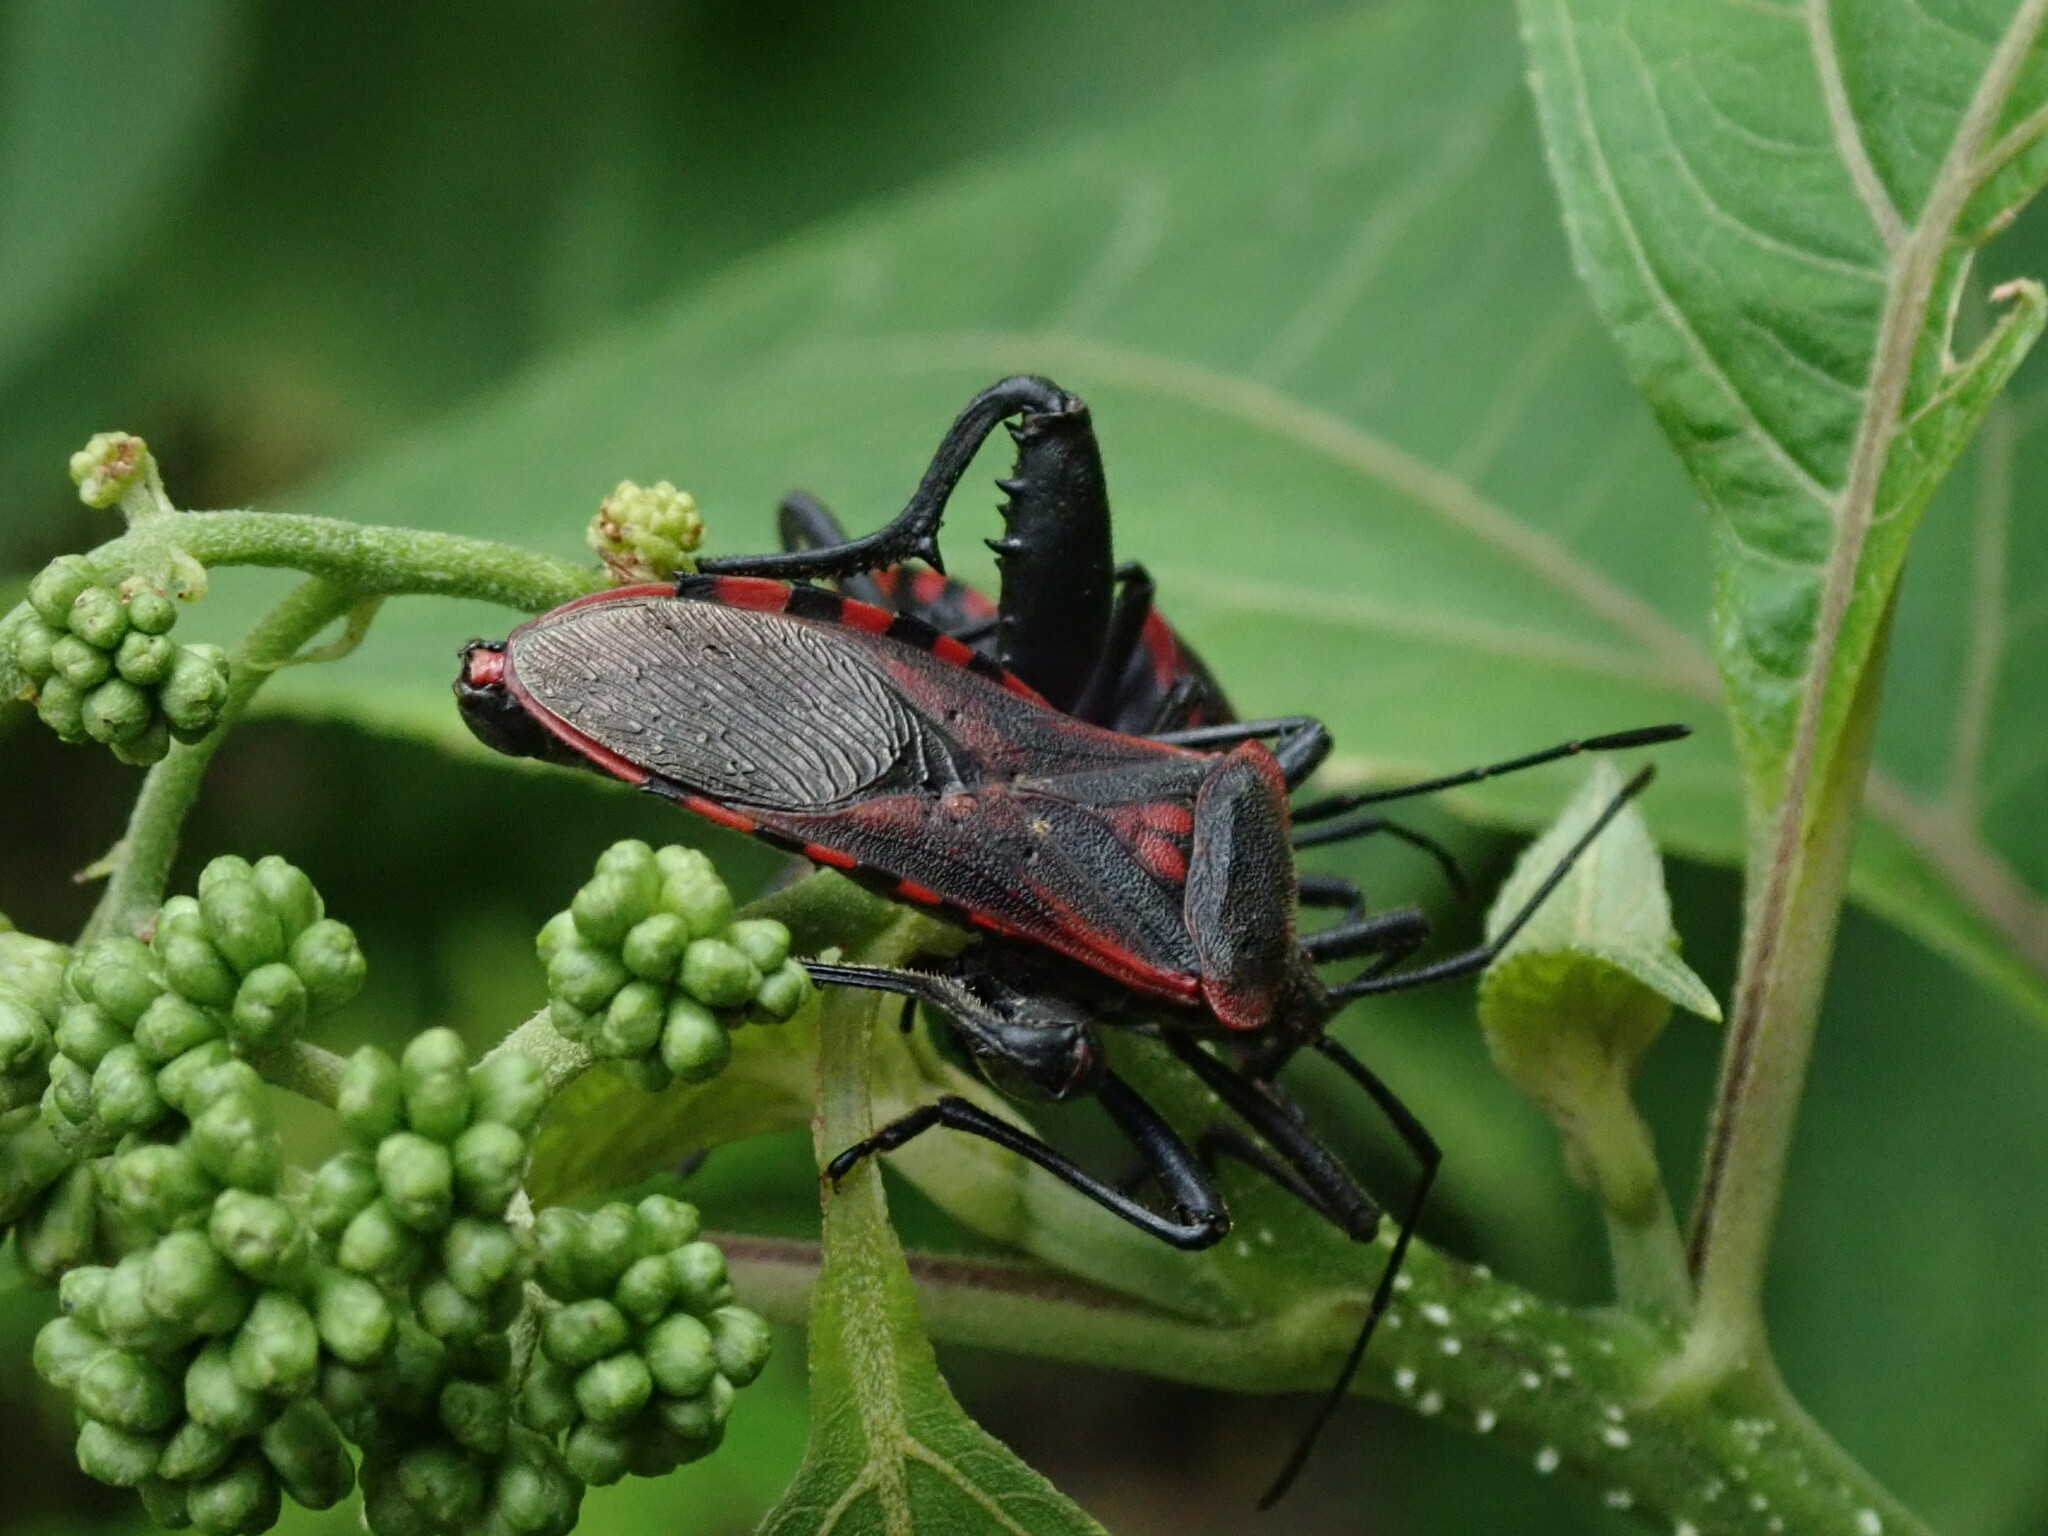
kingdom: Animalia
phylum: Arthropoda
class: Insecta
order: Hemiptera
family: Coreidae
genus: Piezogaster
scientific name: Piezogaster rubropictus
